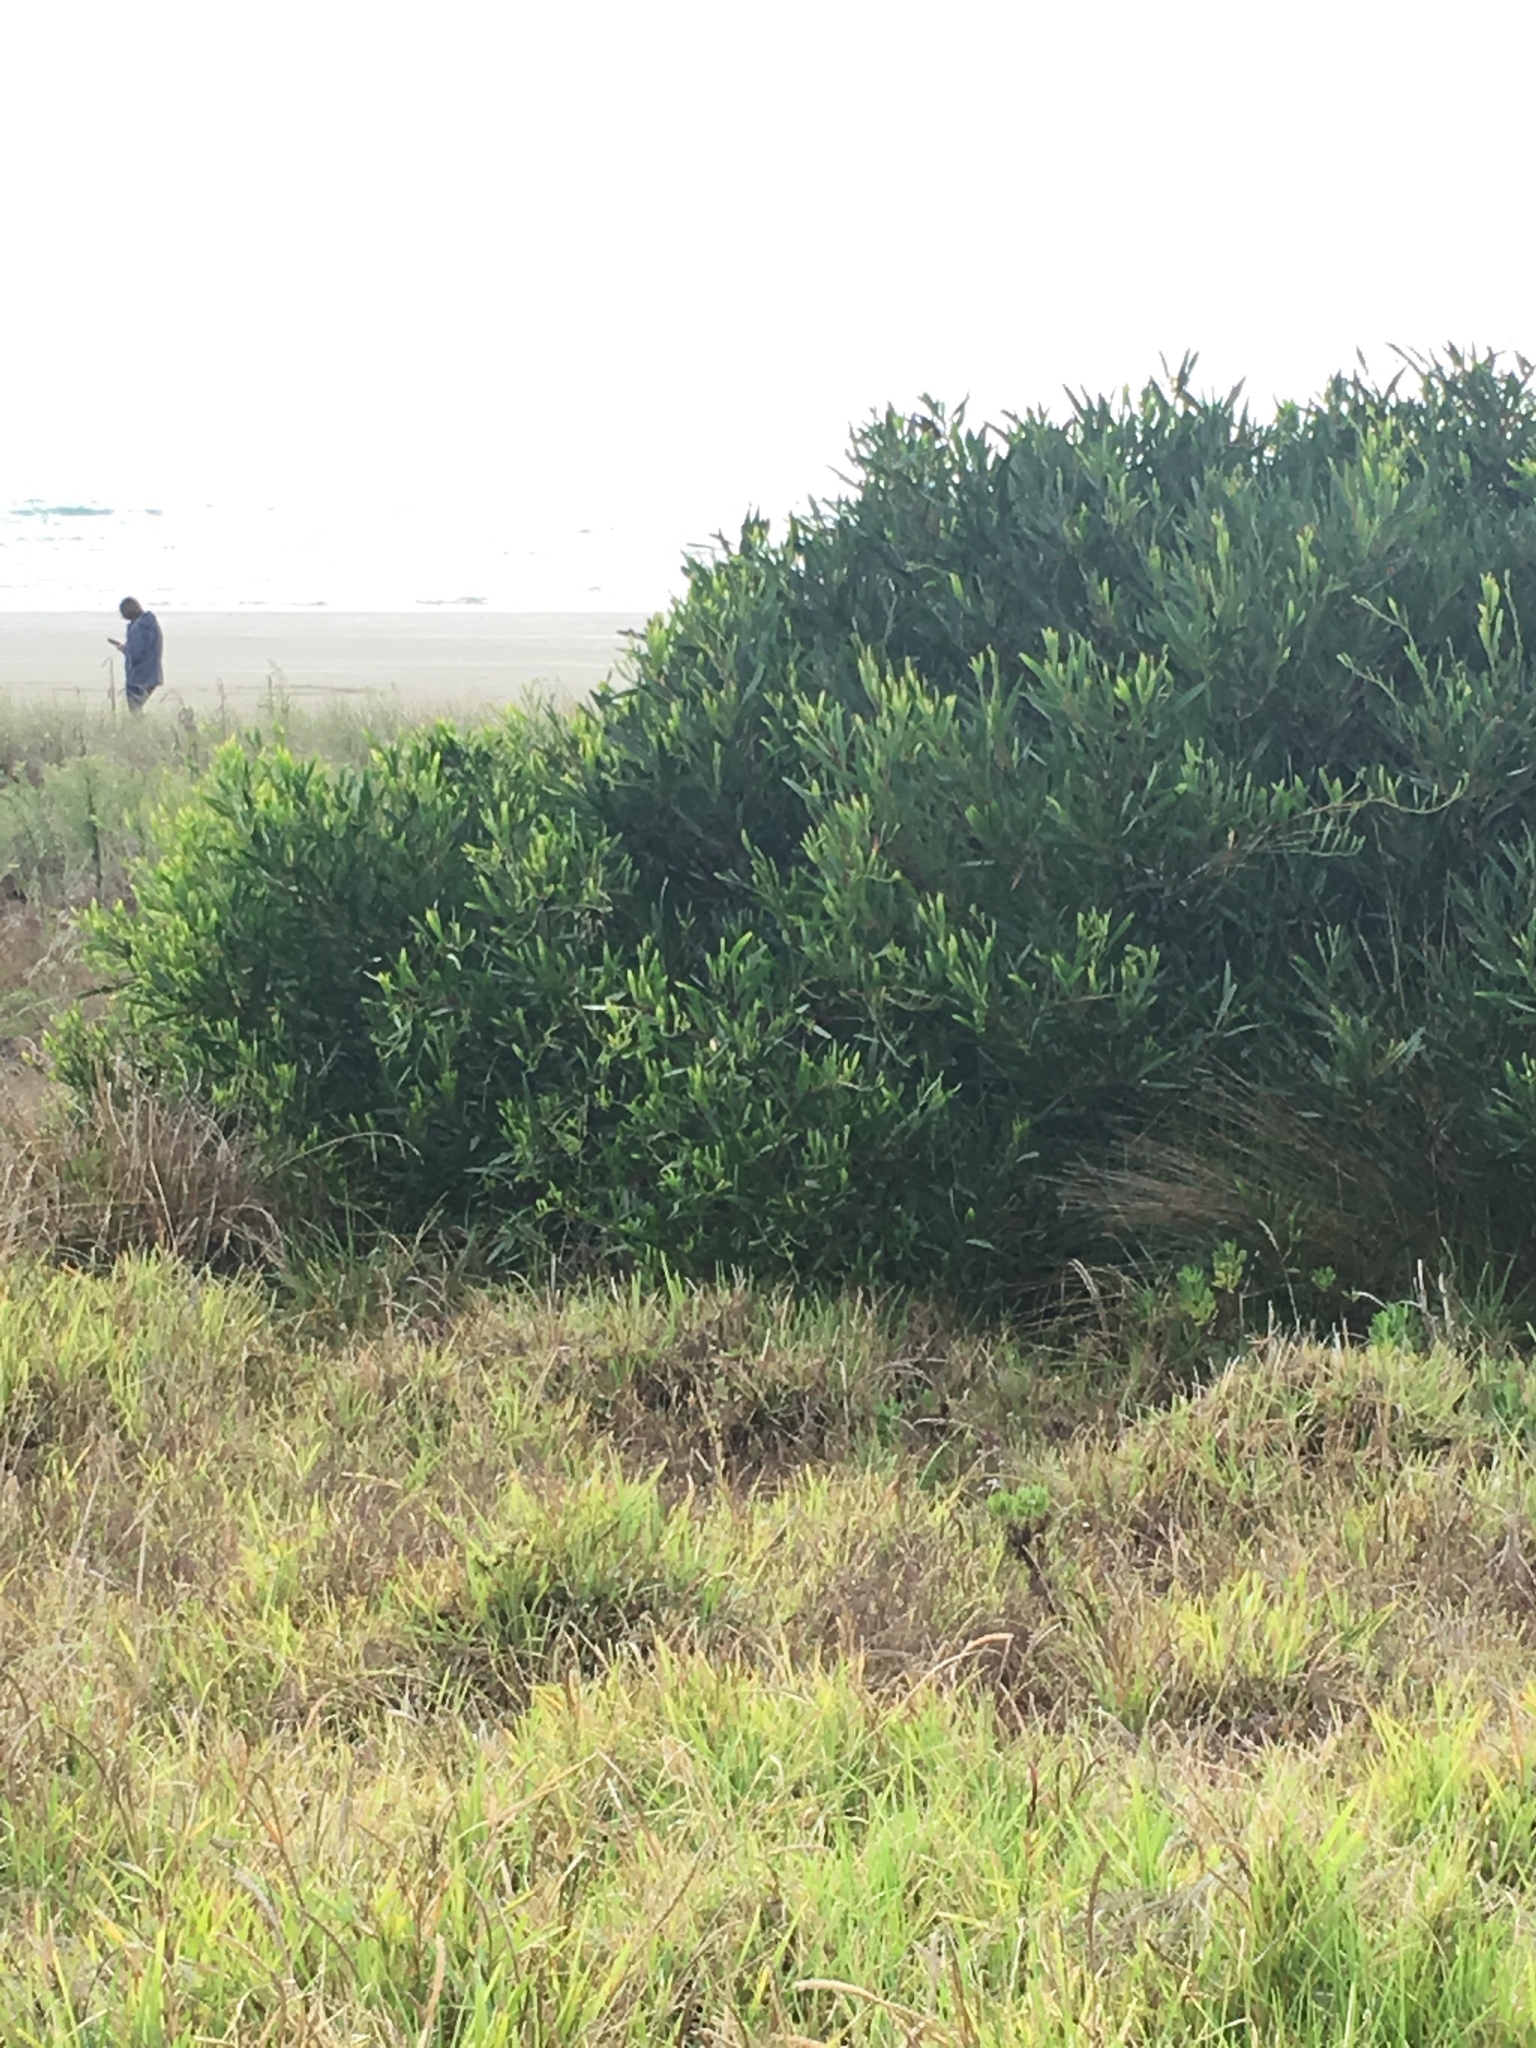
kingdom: Plantae
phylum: Tracheophyta
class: Magnoliopsida
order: Fabales
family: Fabaceae
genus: Acacia
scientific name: Acacia longifolia
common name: Sydney golden wattle
